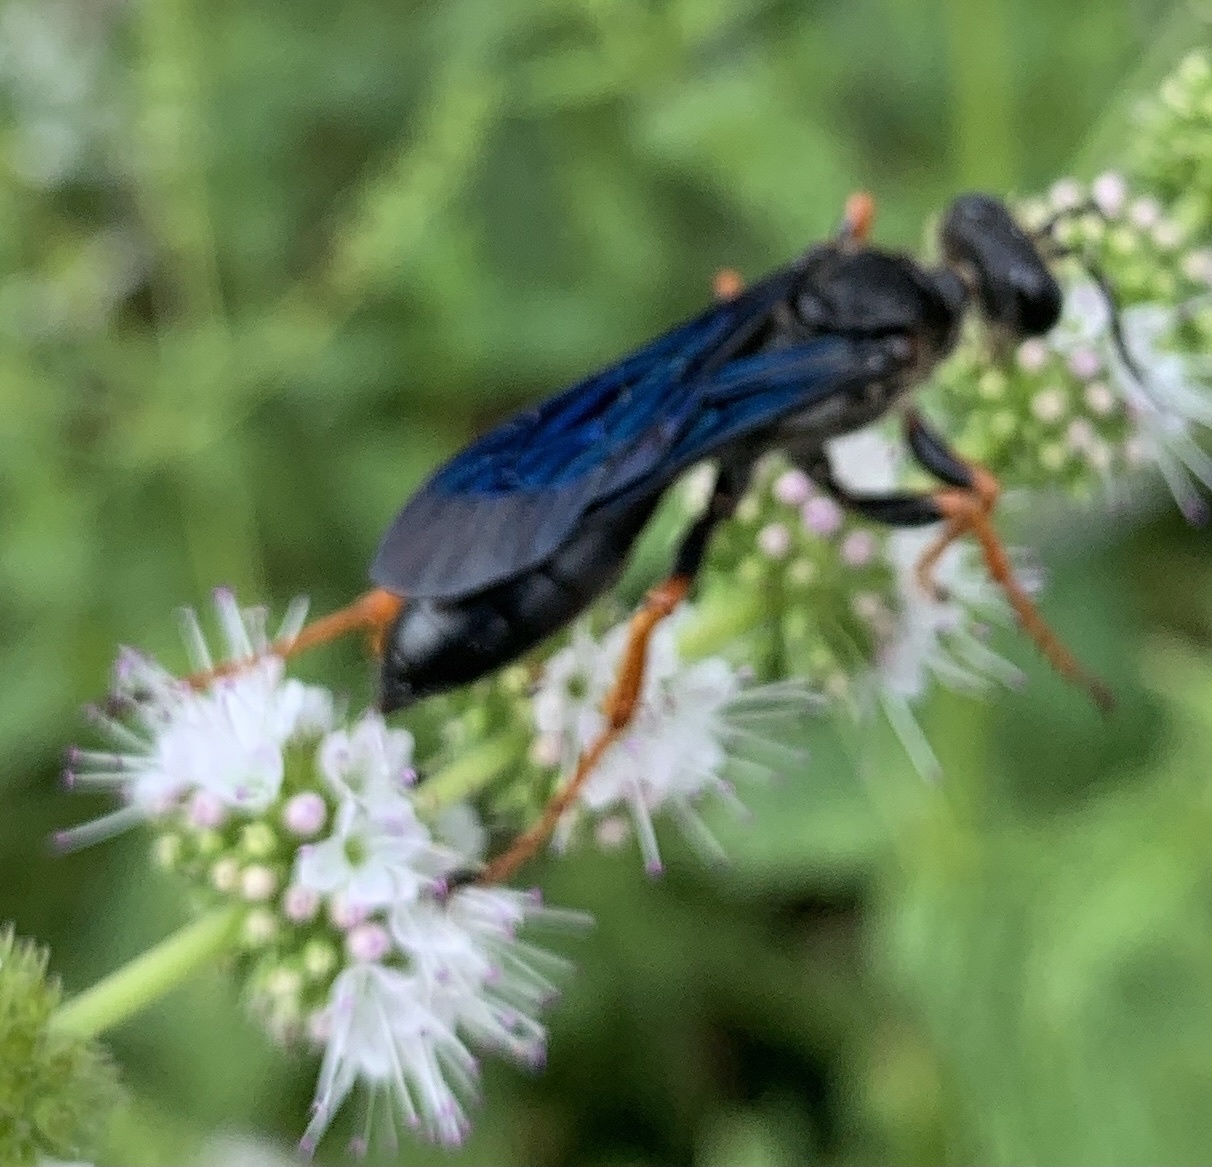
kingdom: Animalia
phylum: Arthropoda
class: Insecta
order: Hymenoptera
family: Sphecidae
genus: Sphex
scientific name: Sphex nudus
